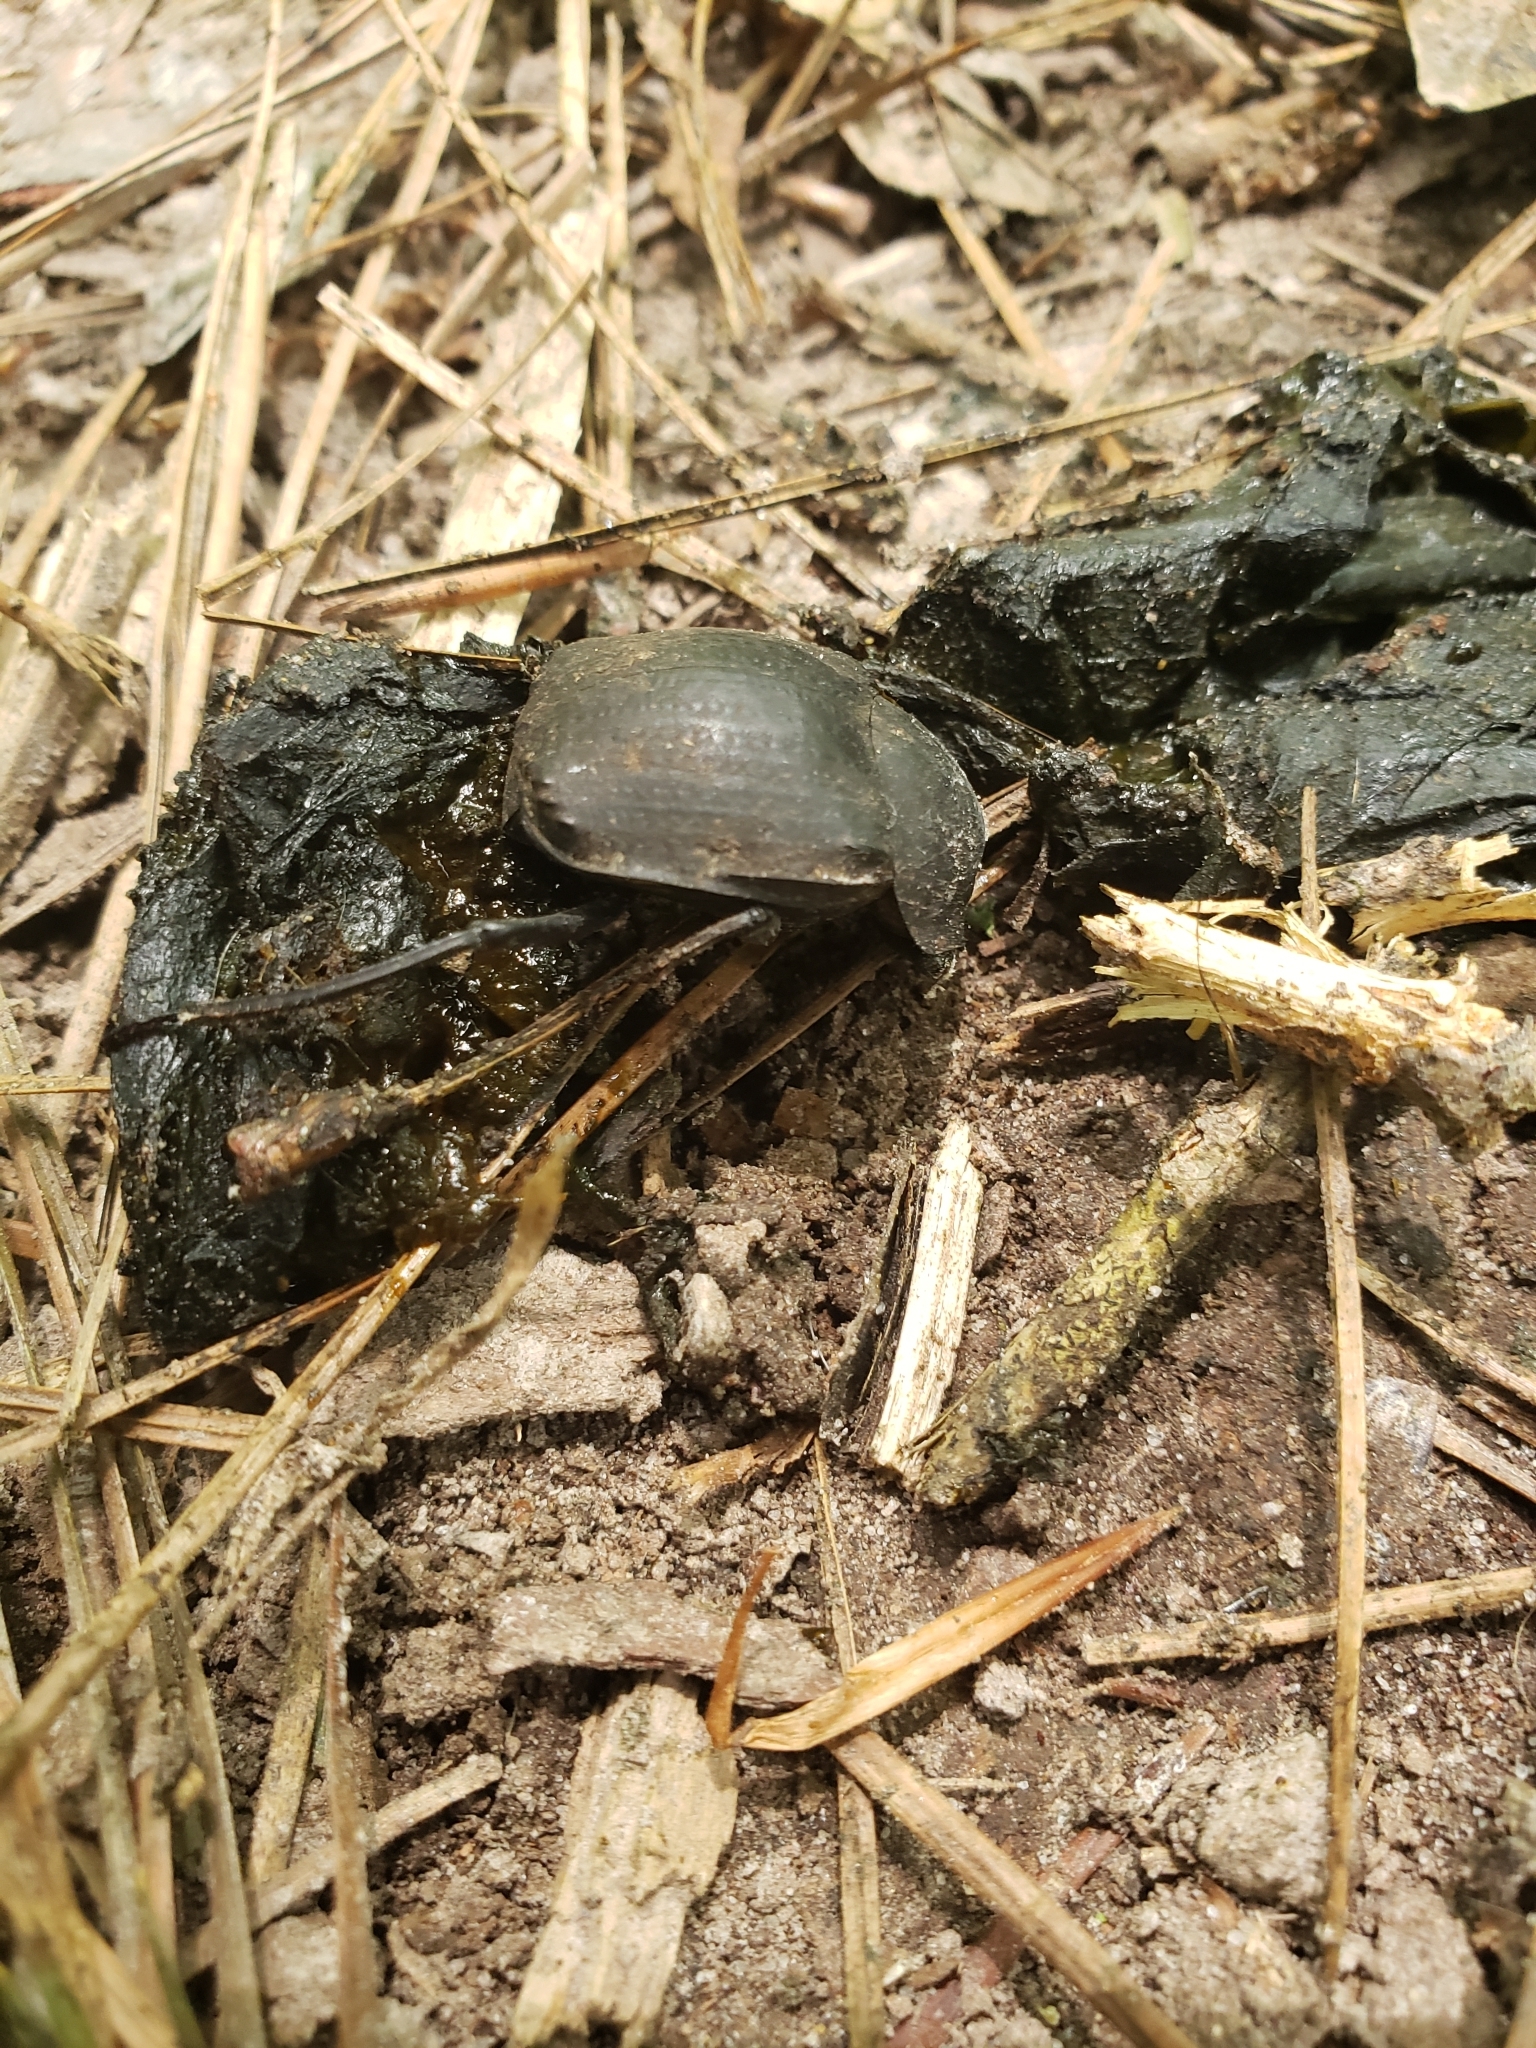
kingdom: Animalia
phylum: Arthropoda
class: Insecta
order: Coleoptera
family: Scarabaeidae
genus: Deltochilum
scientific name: Deltochilum gibbosum
